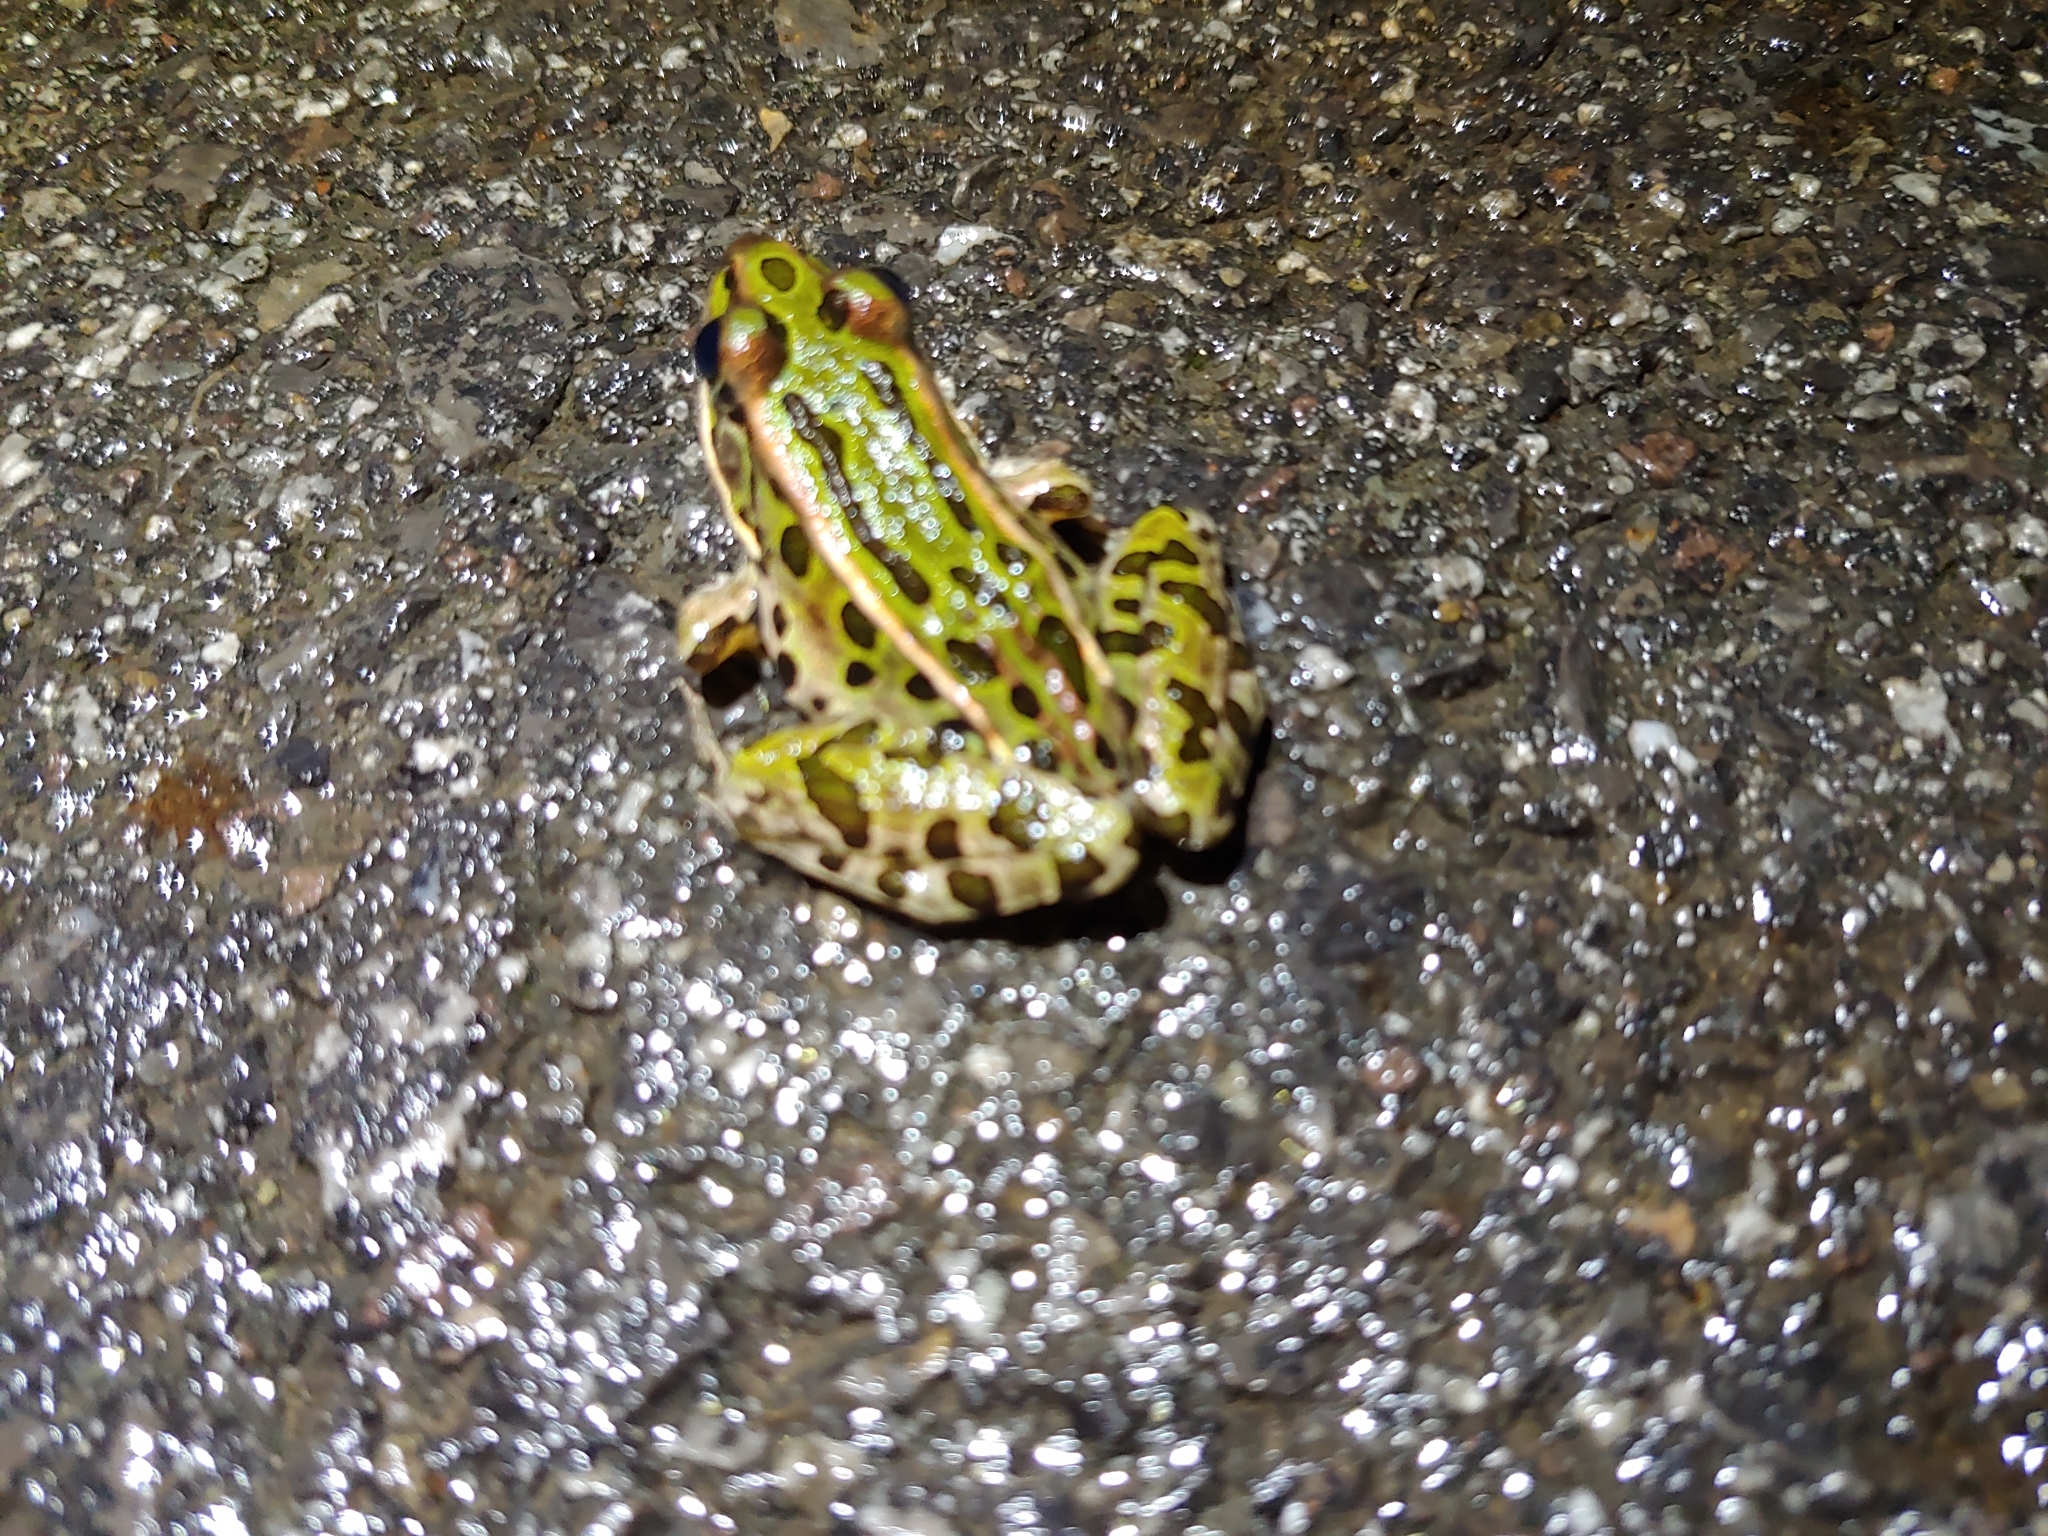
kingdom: Animalia
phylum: Chordata
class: Amphibia
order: Anura
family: Ranidae
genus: Lithobates
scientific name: Lithobates pipiens
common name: Northern leopard frog
